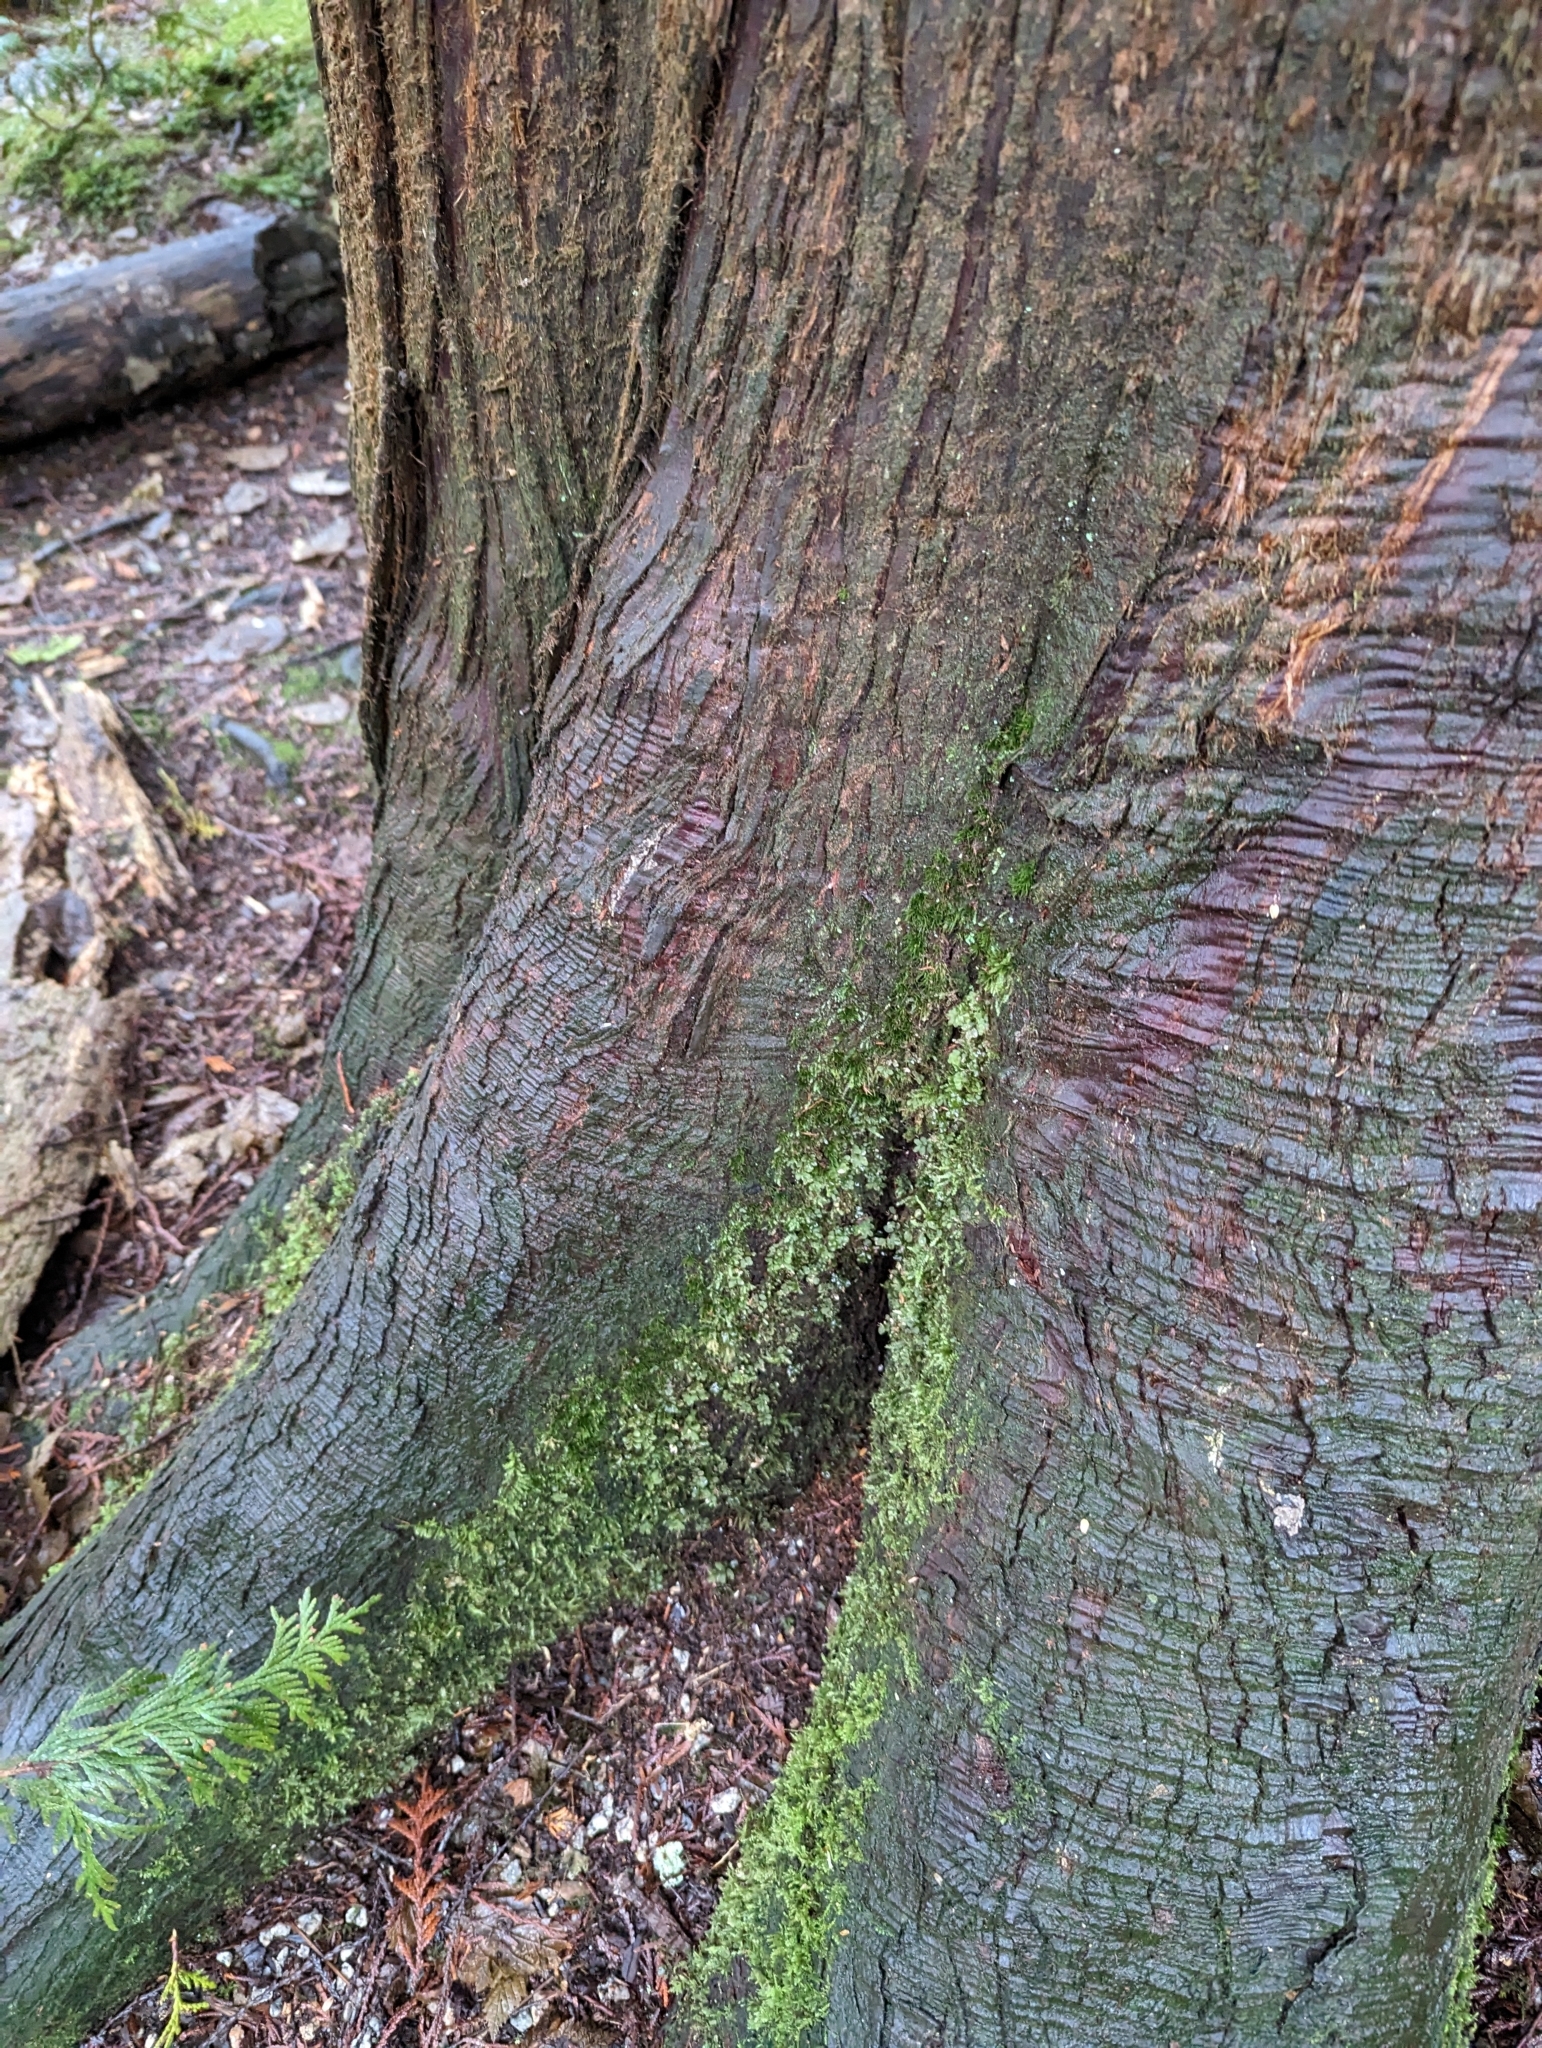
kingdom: Plantae
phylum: Bryophyta
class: Bryopsida
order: Bryales
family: Mniaceae
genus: Rhizomnium
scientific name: Rhizomnium glabrescens
